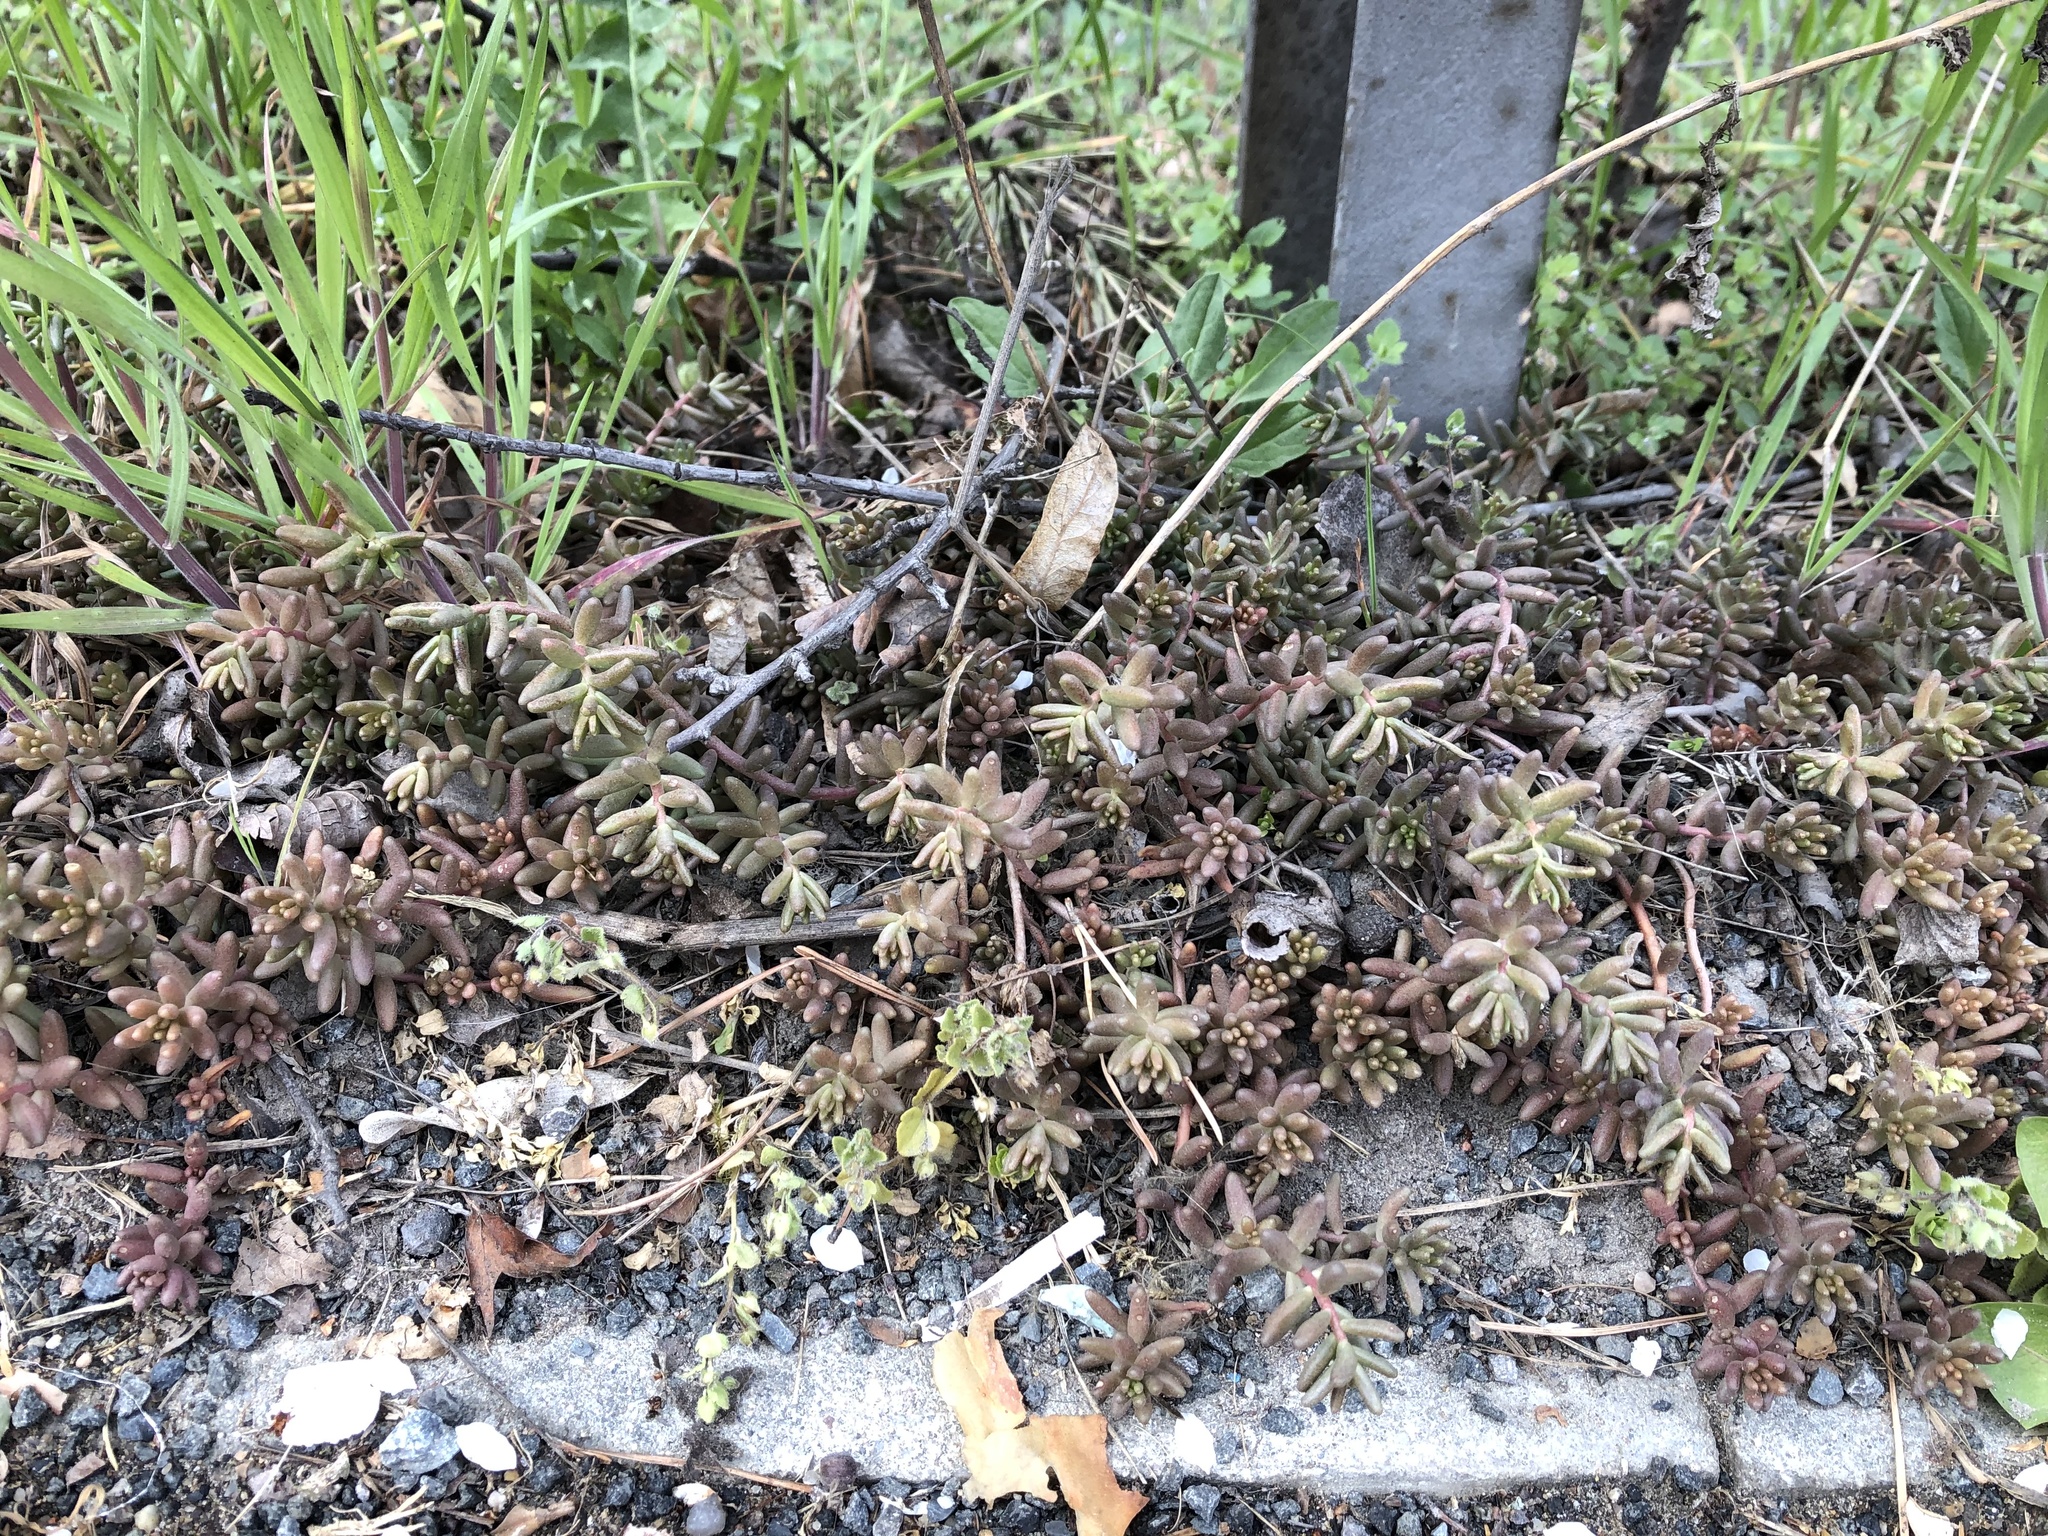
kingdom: Plantae
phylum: Tracheophyta
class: Magnoliopsida
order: Saxifragales
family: Crassulaceae
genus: Sedum
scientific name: Sedum album
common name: White stonecrop
